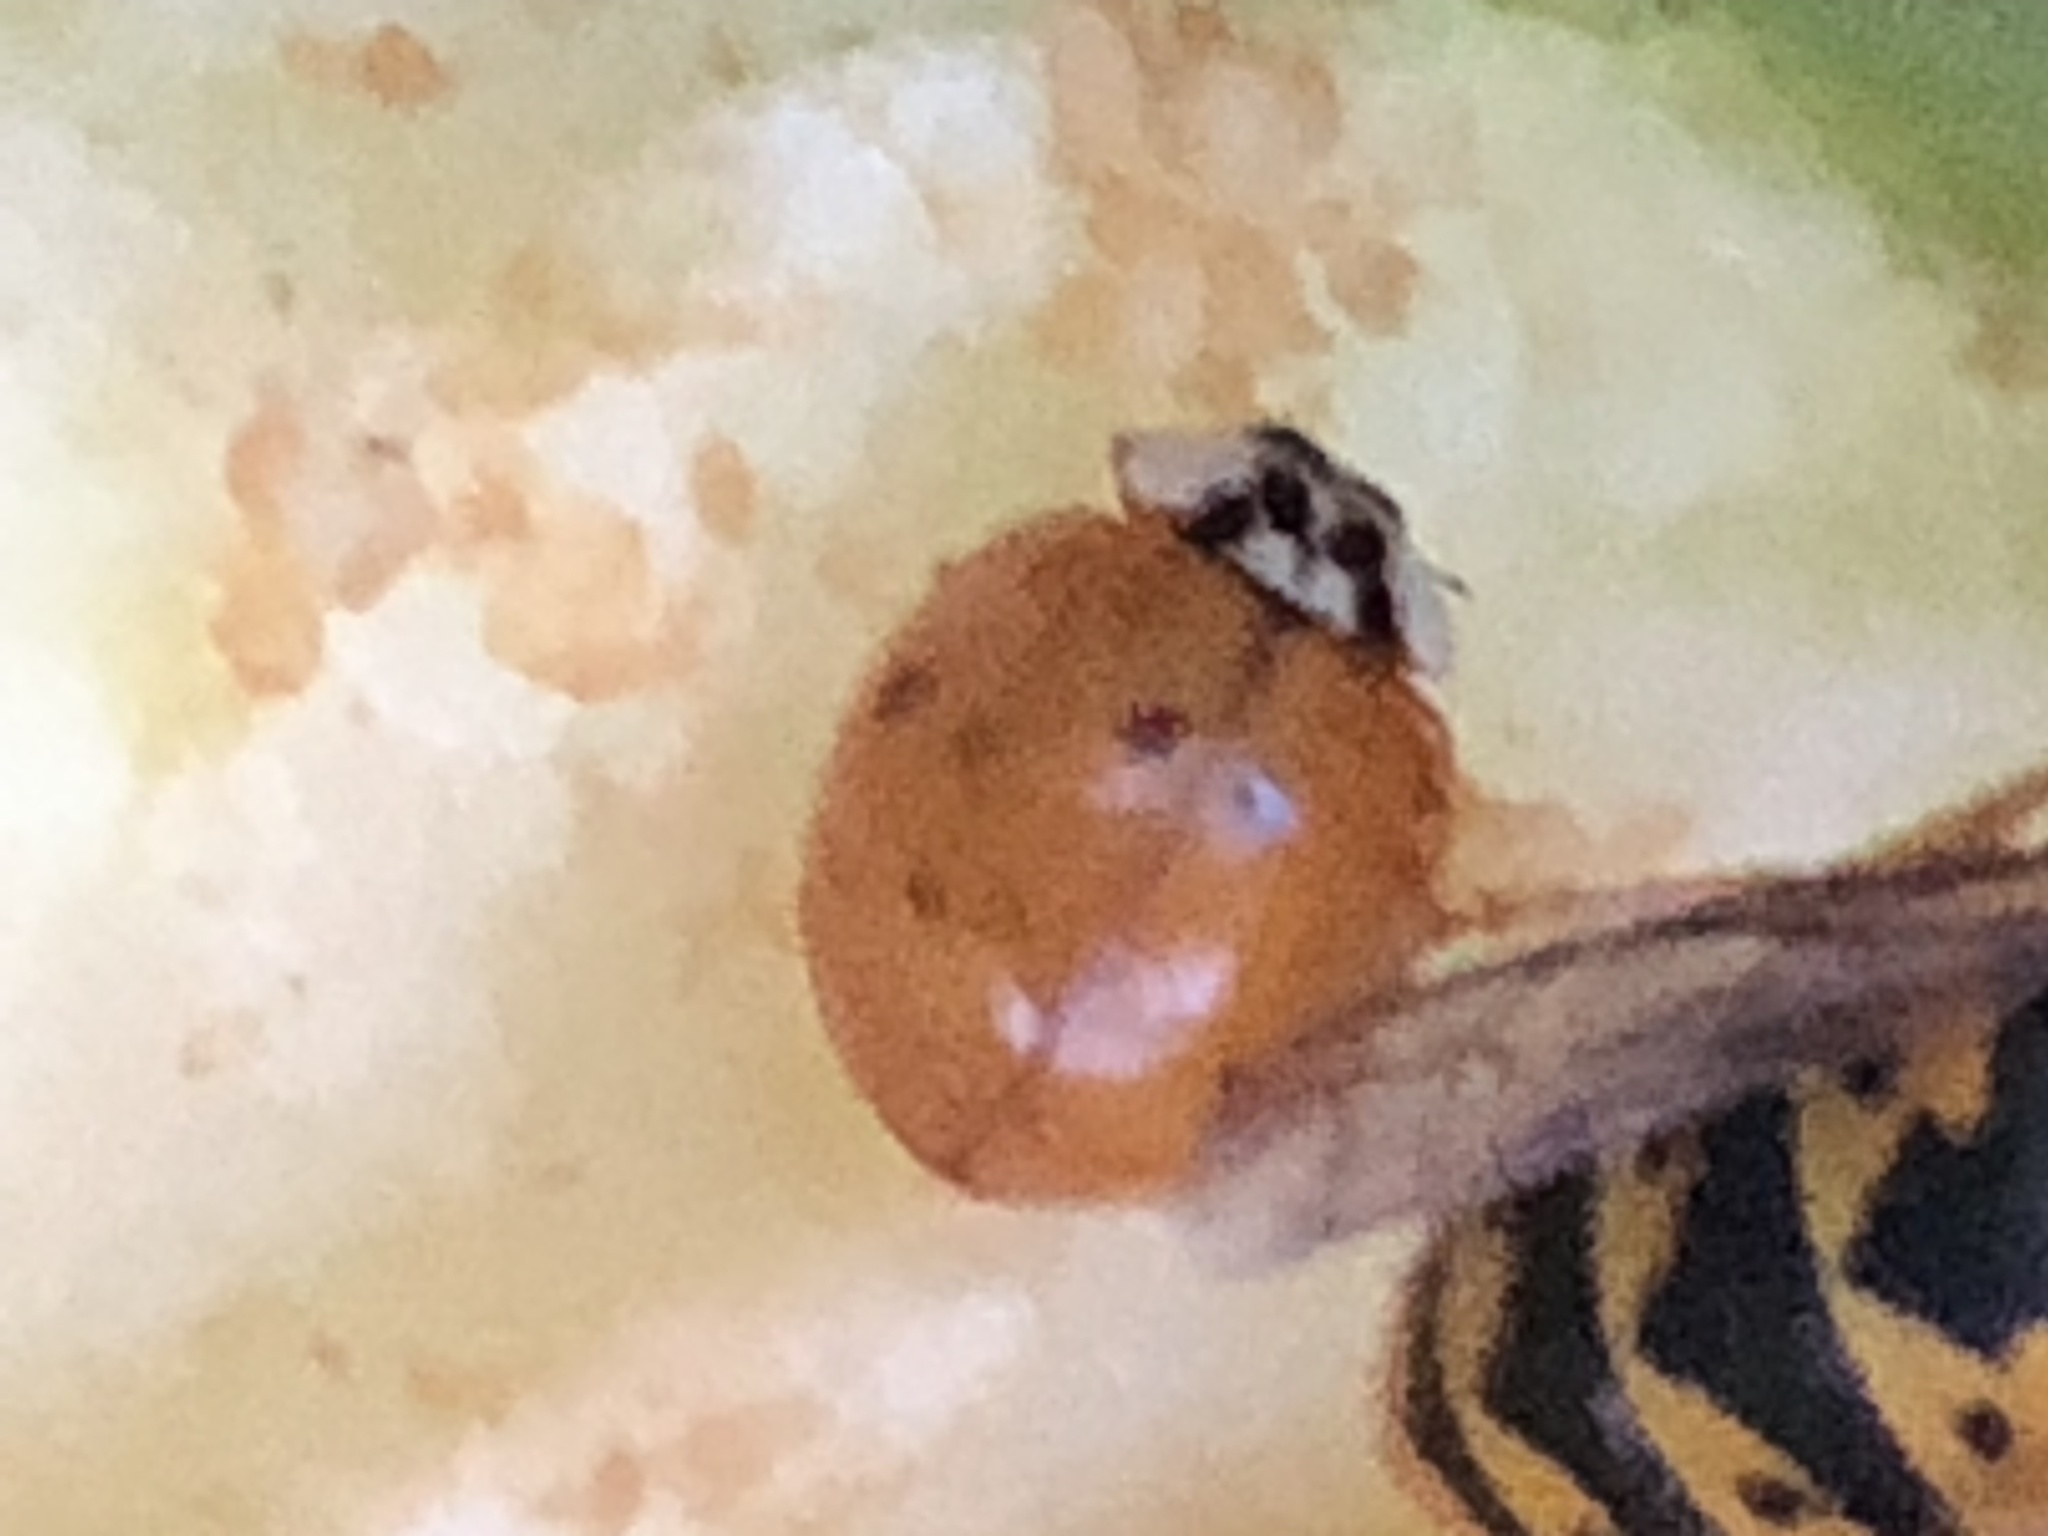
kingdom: Animalia
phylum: Arthropoda
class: Insecta
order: Coleoptera
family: Coccinellidae
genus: Harmonia
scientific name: Harmonia axyridis
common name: Harlequin ladybird
